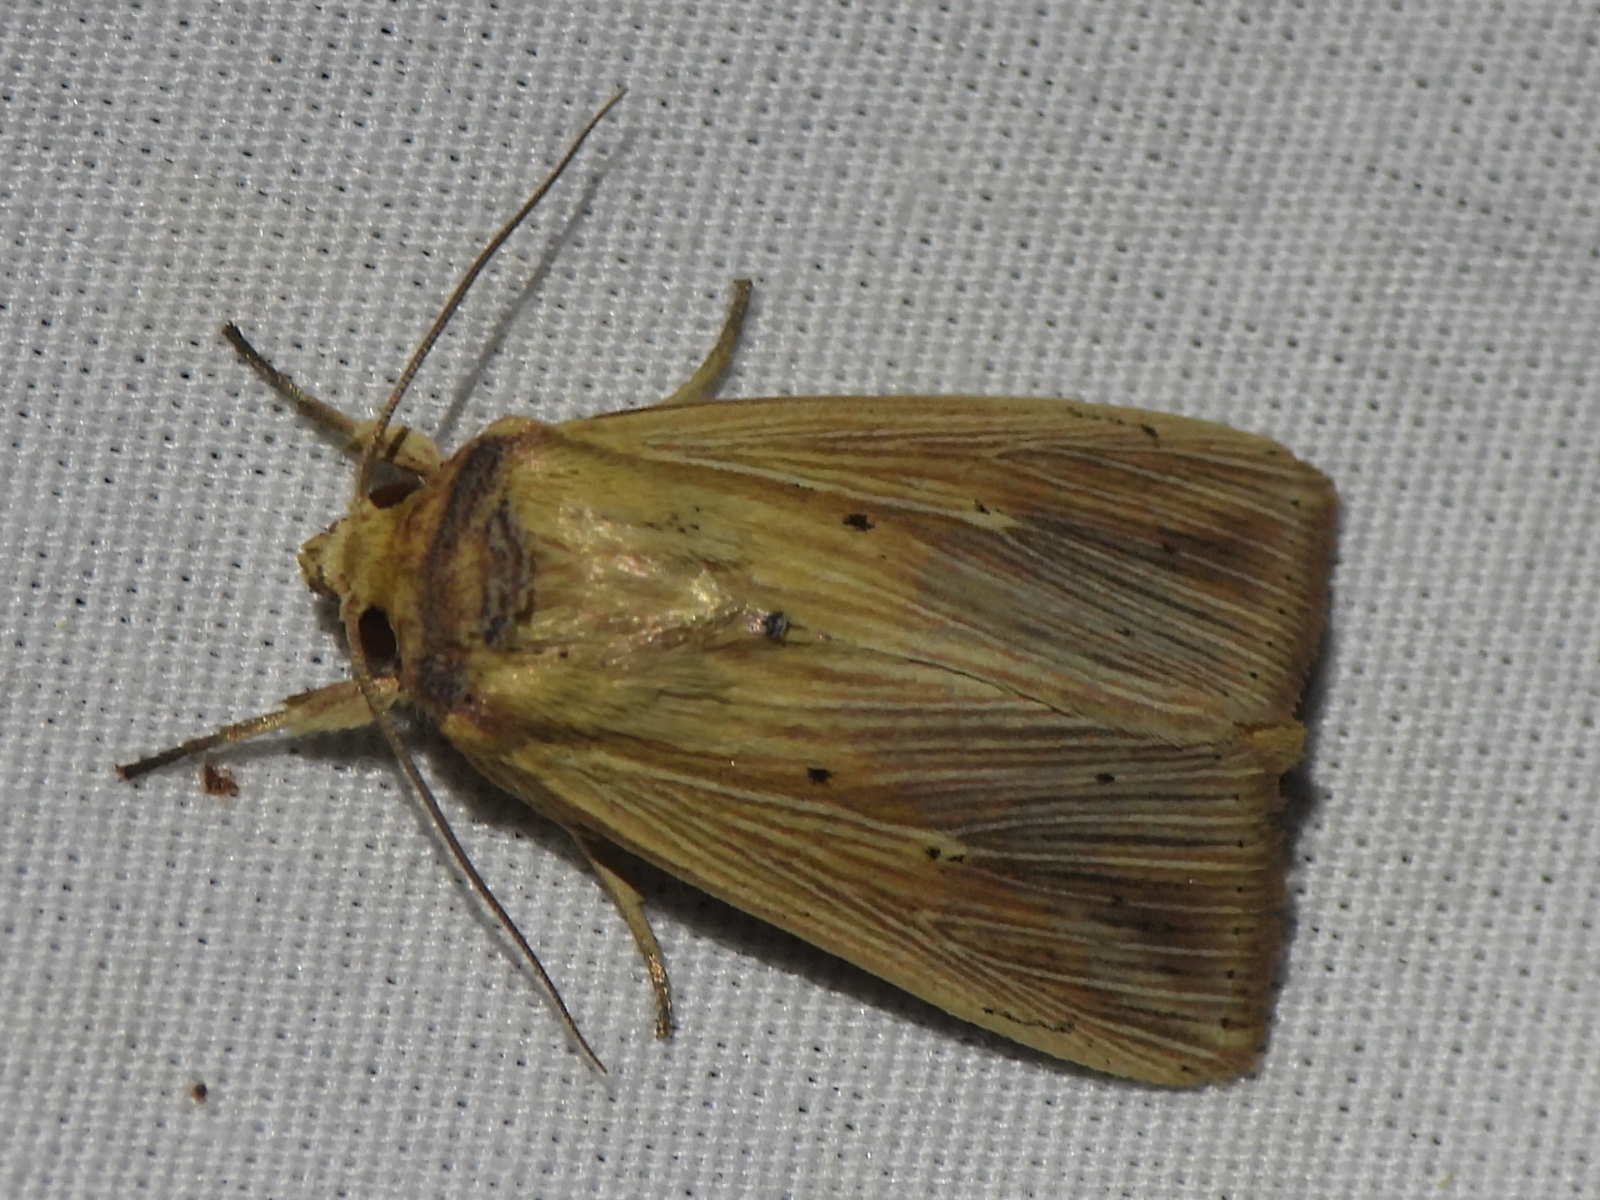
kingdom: Animalia
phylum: Arthropoda
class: Insecta
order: Lepidoptera
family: Noctuidae
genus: Leucania
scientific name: Leucania adjuta
